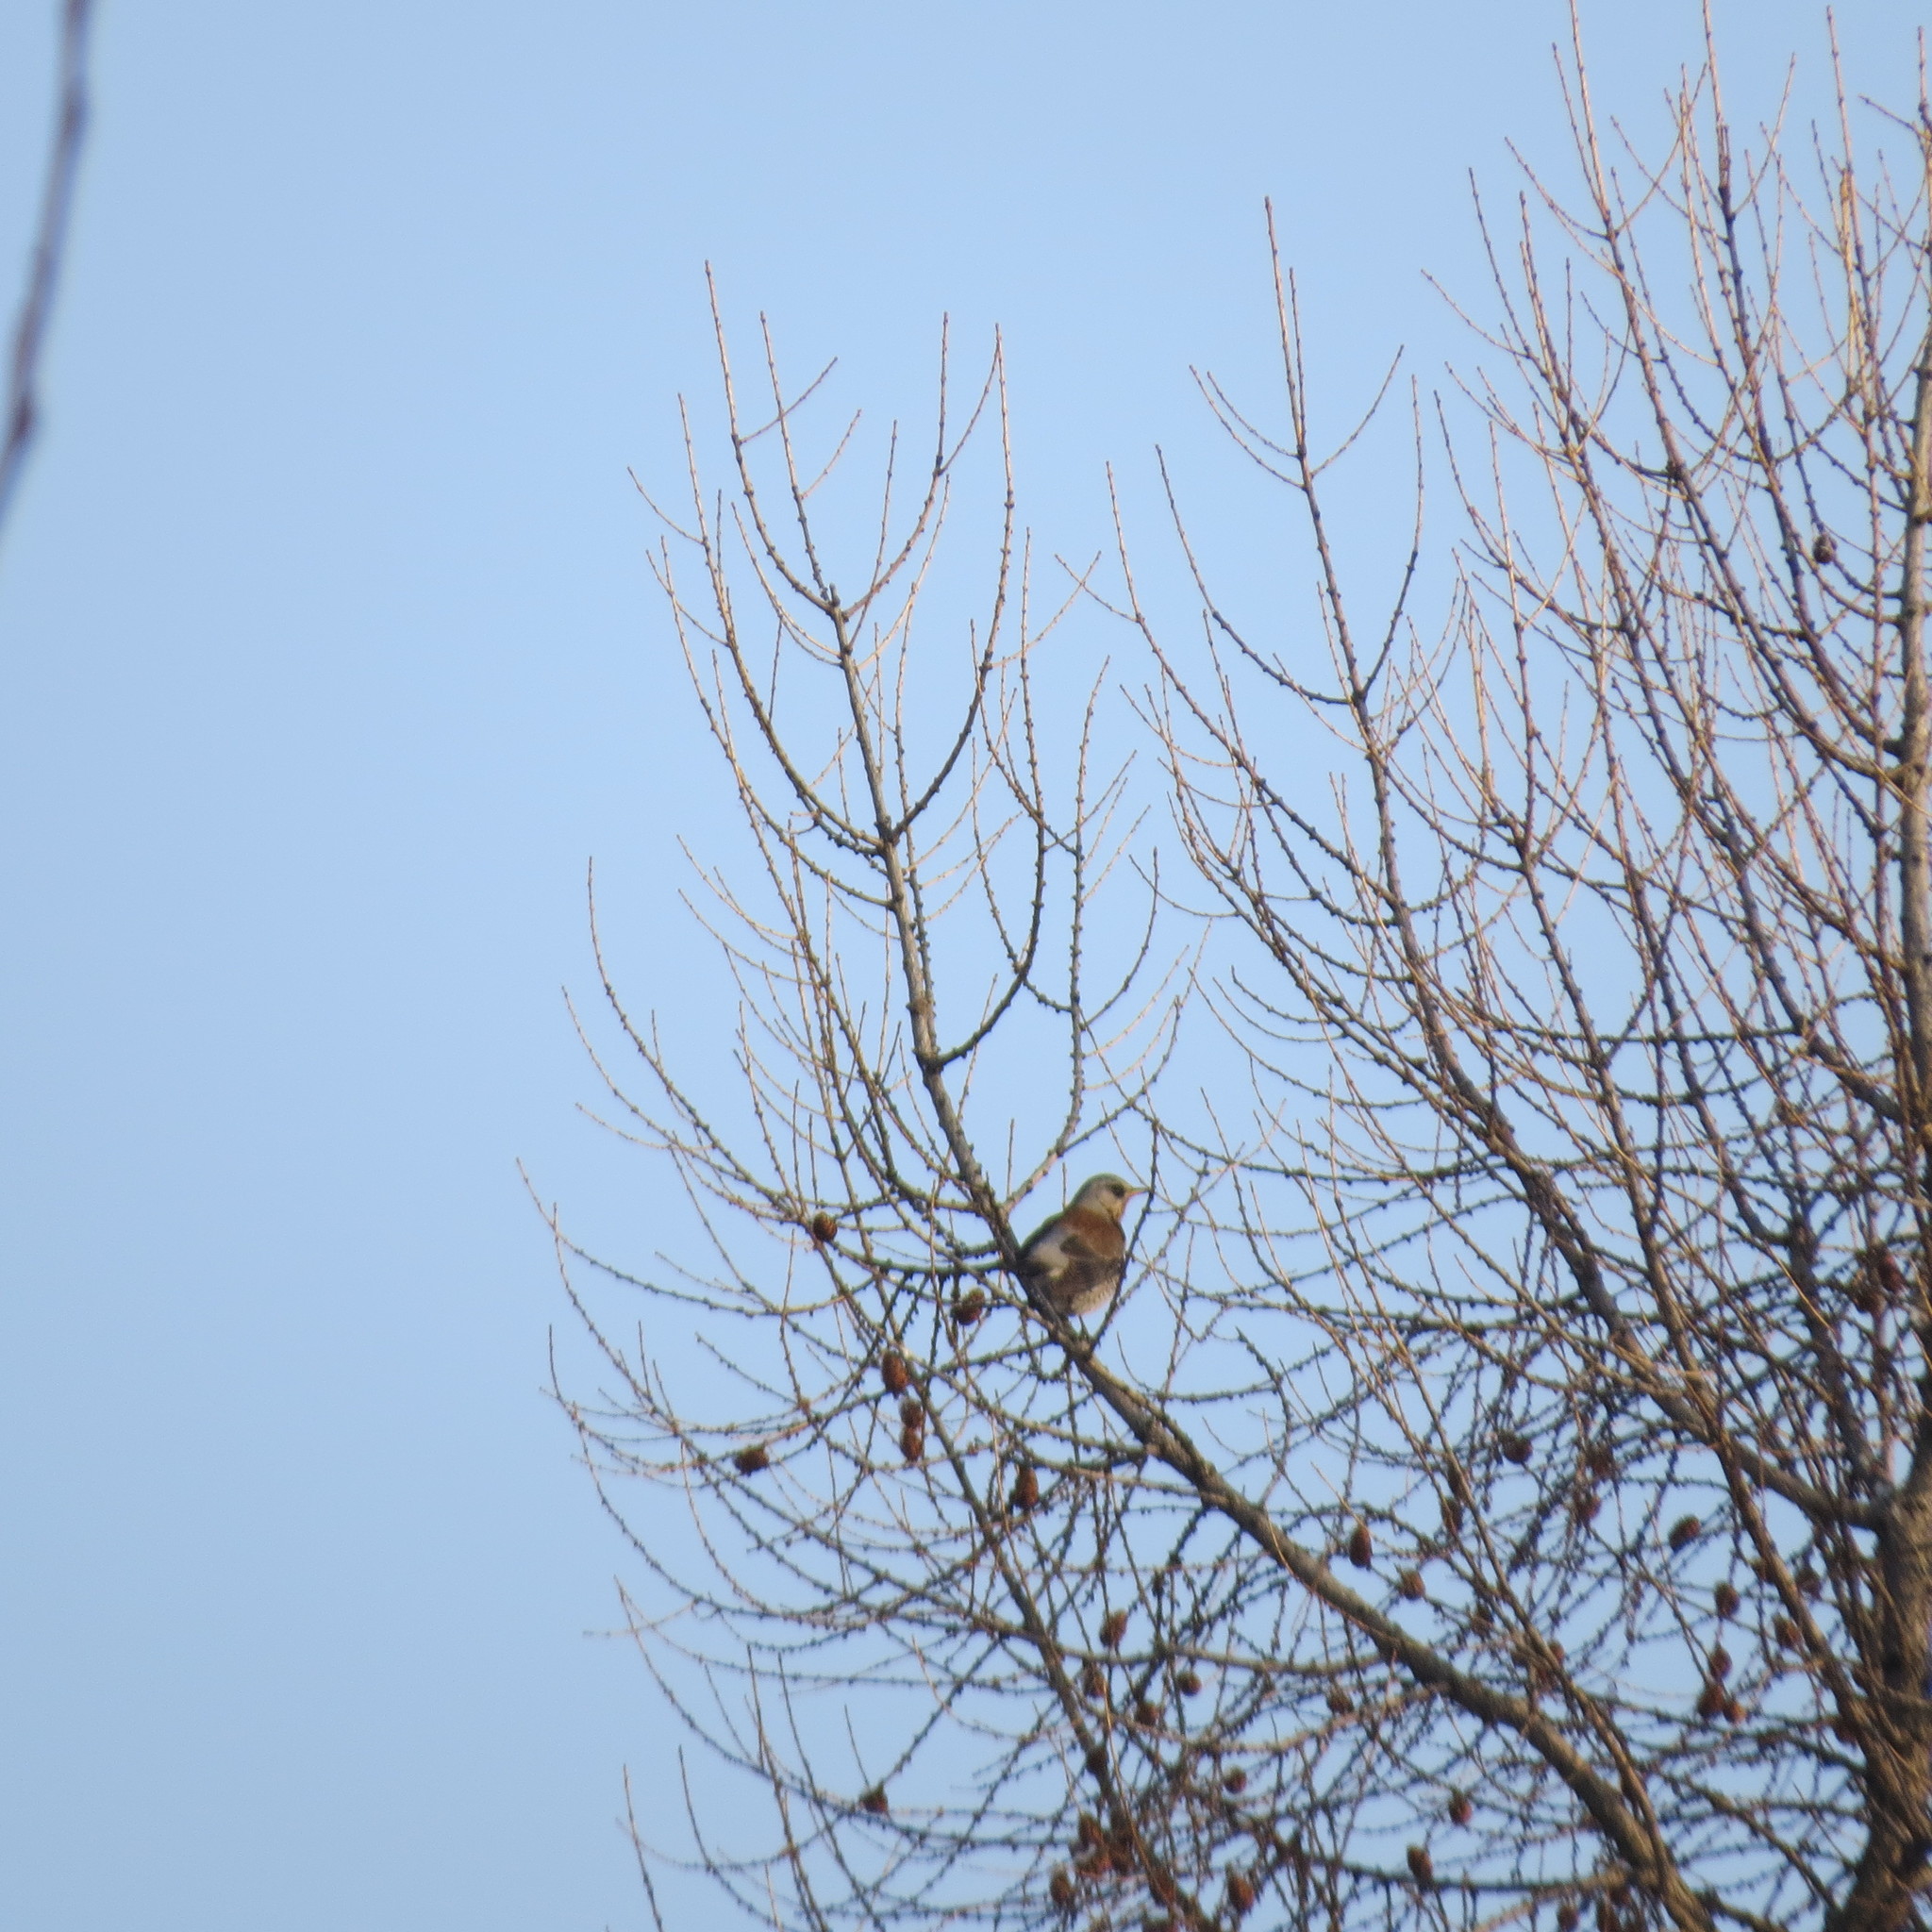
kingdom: Animalia
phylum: Chordata
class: Aves
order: Passeriformes
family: Turdidae
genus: Turdus
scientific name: Turdus pilaris
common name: Fieldfare
